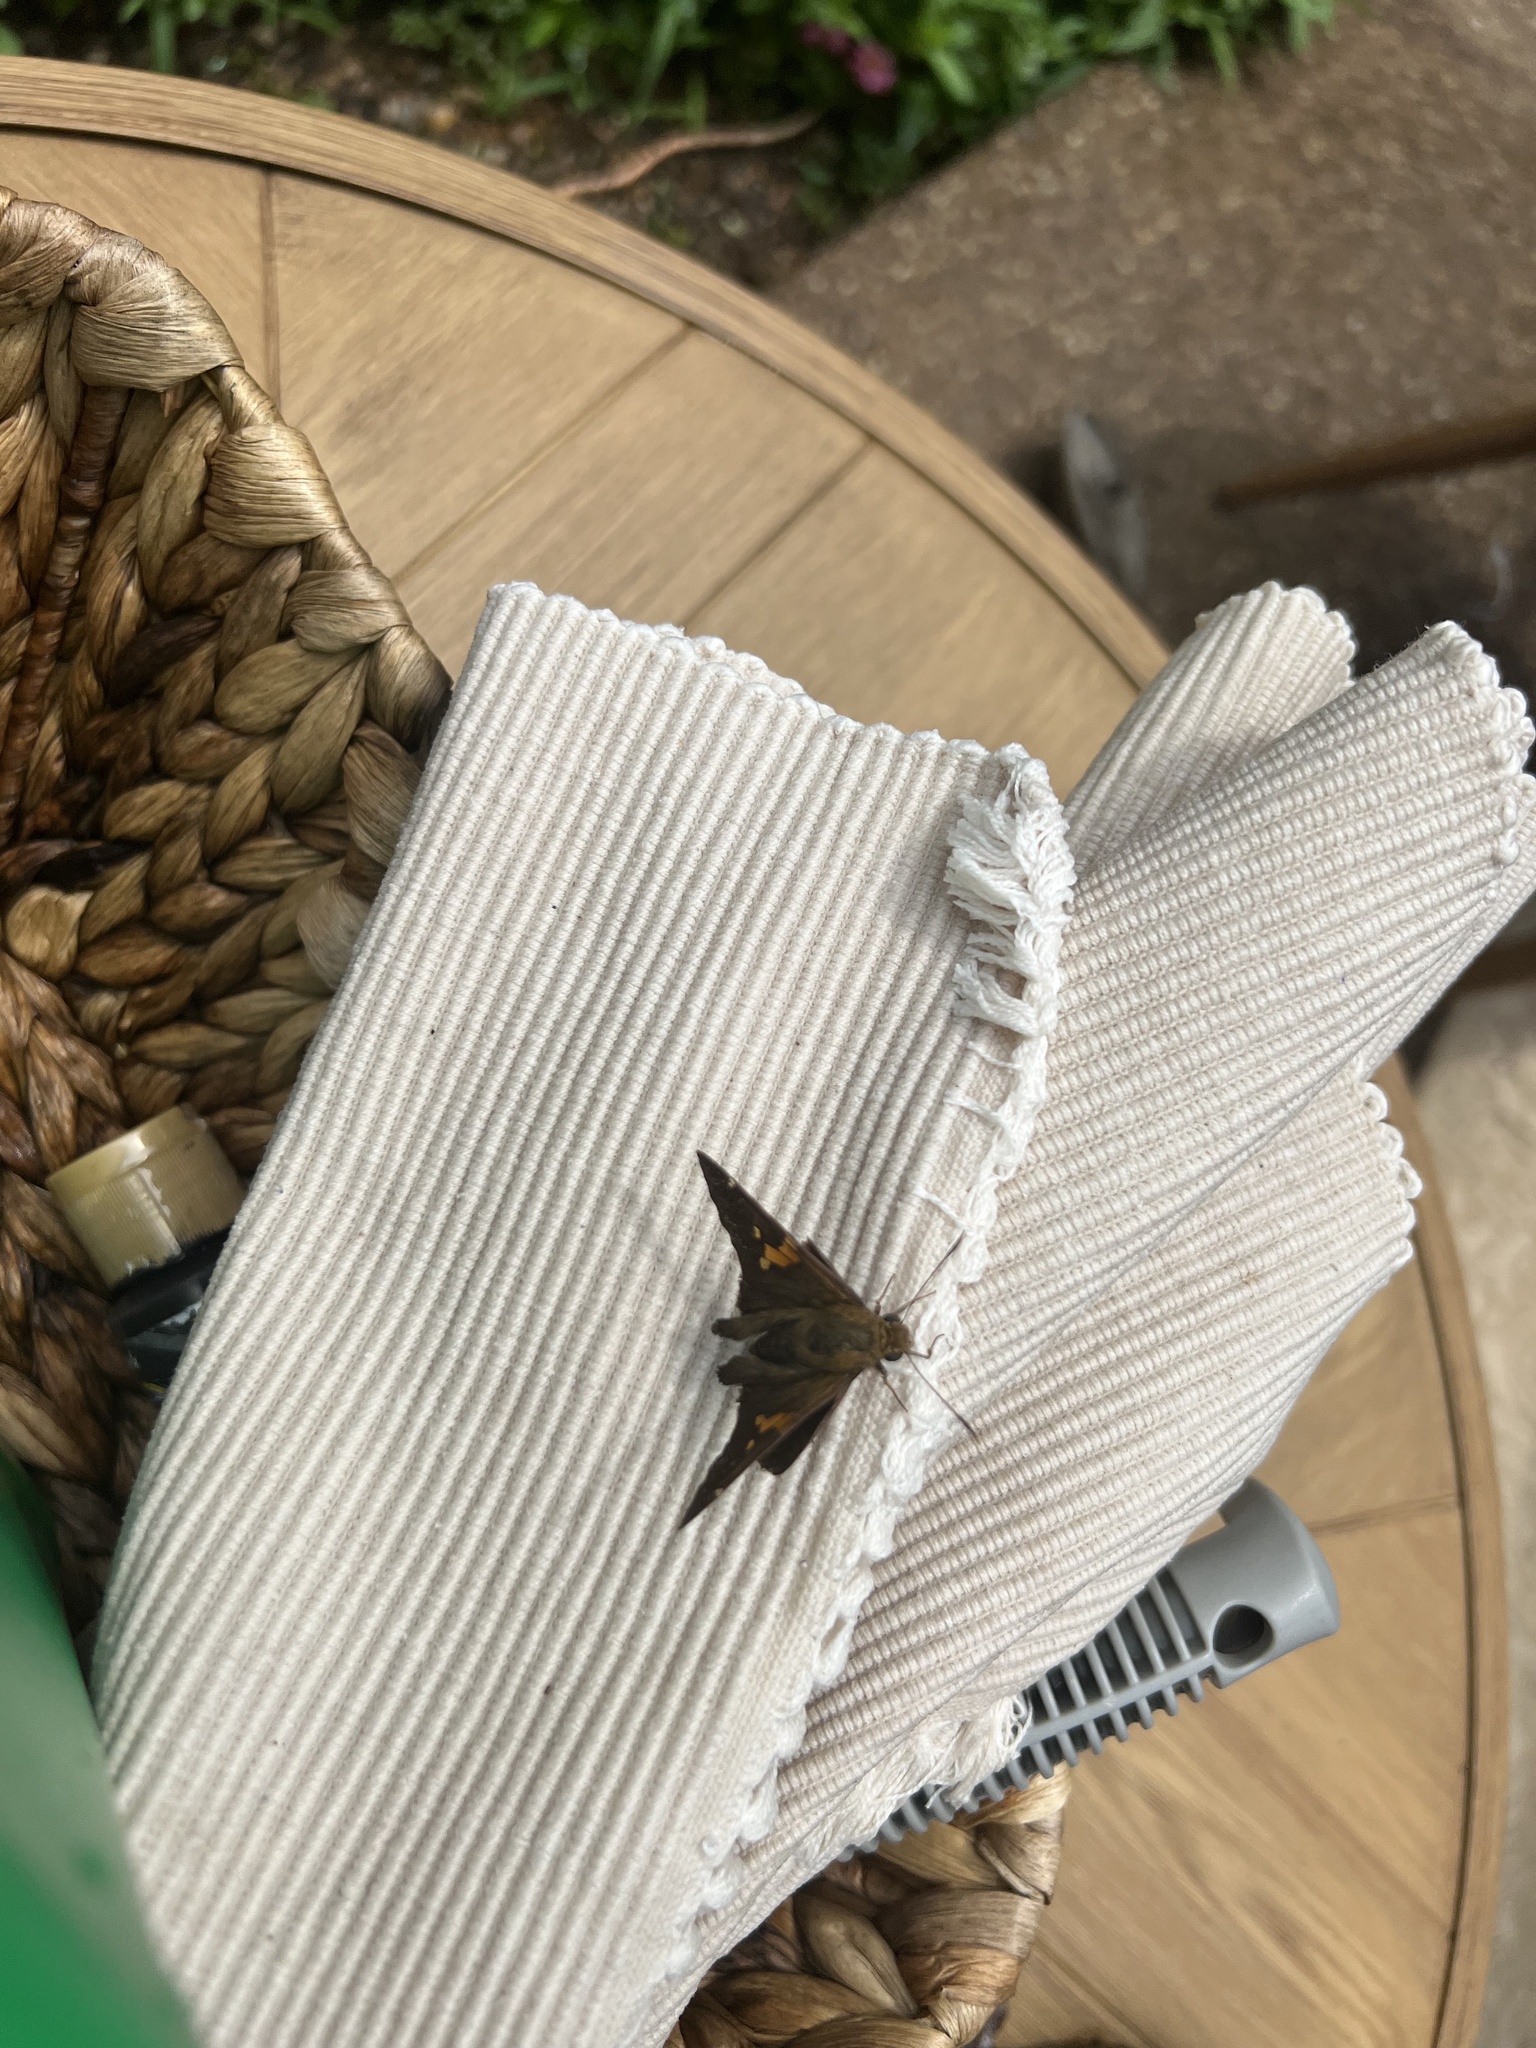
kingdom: Animalia
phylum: Arthropoda
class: Insecta
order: Lepidoptera
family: Hesperiidae
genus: Epargyreus
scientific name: Epargyreus clarus
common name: Silver-spotted skipper
